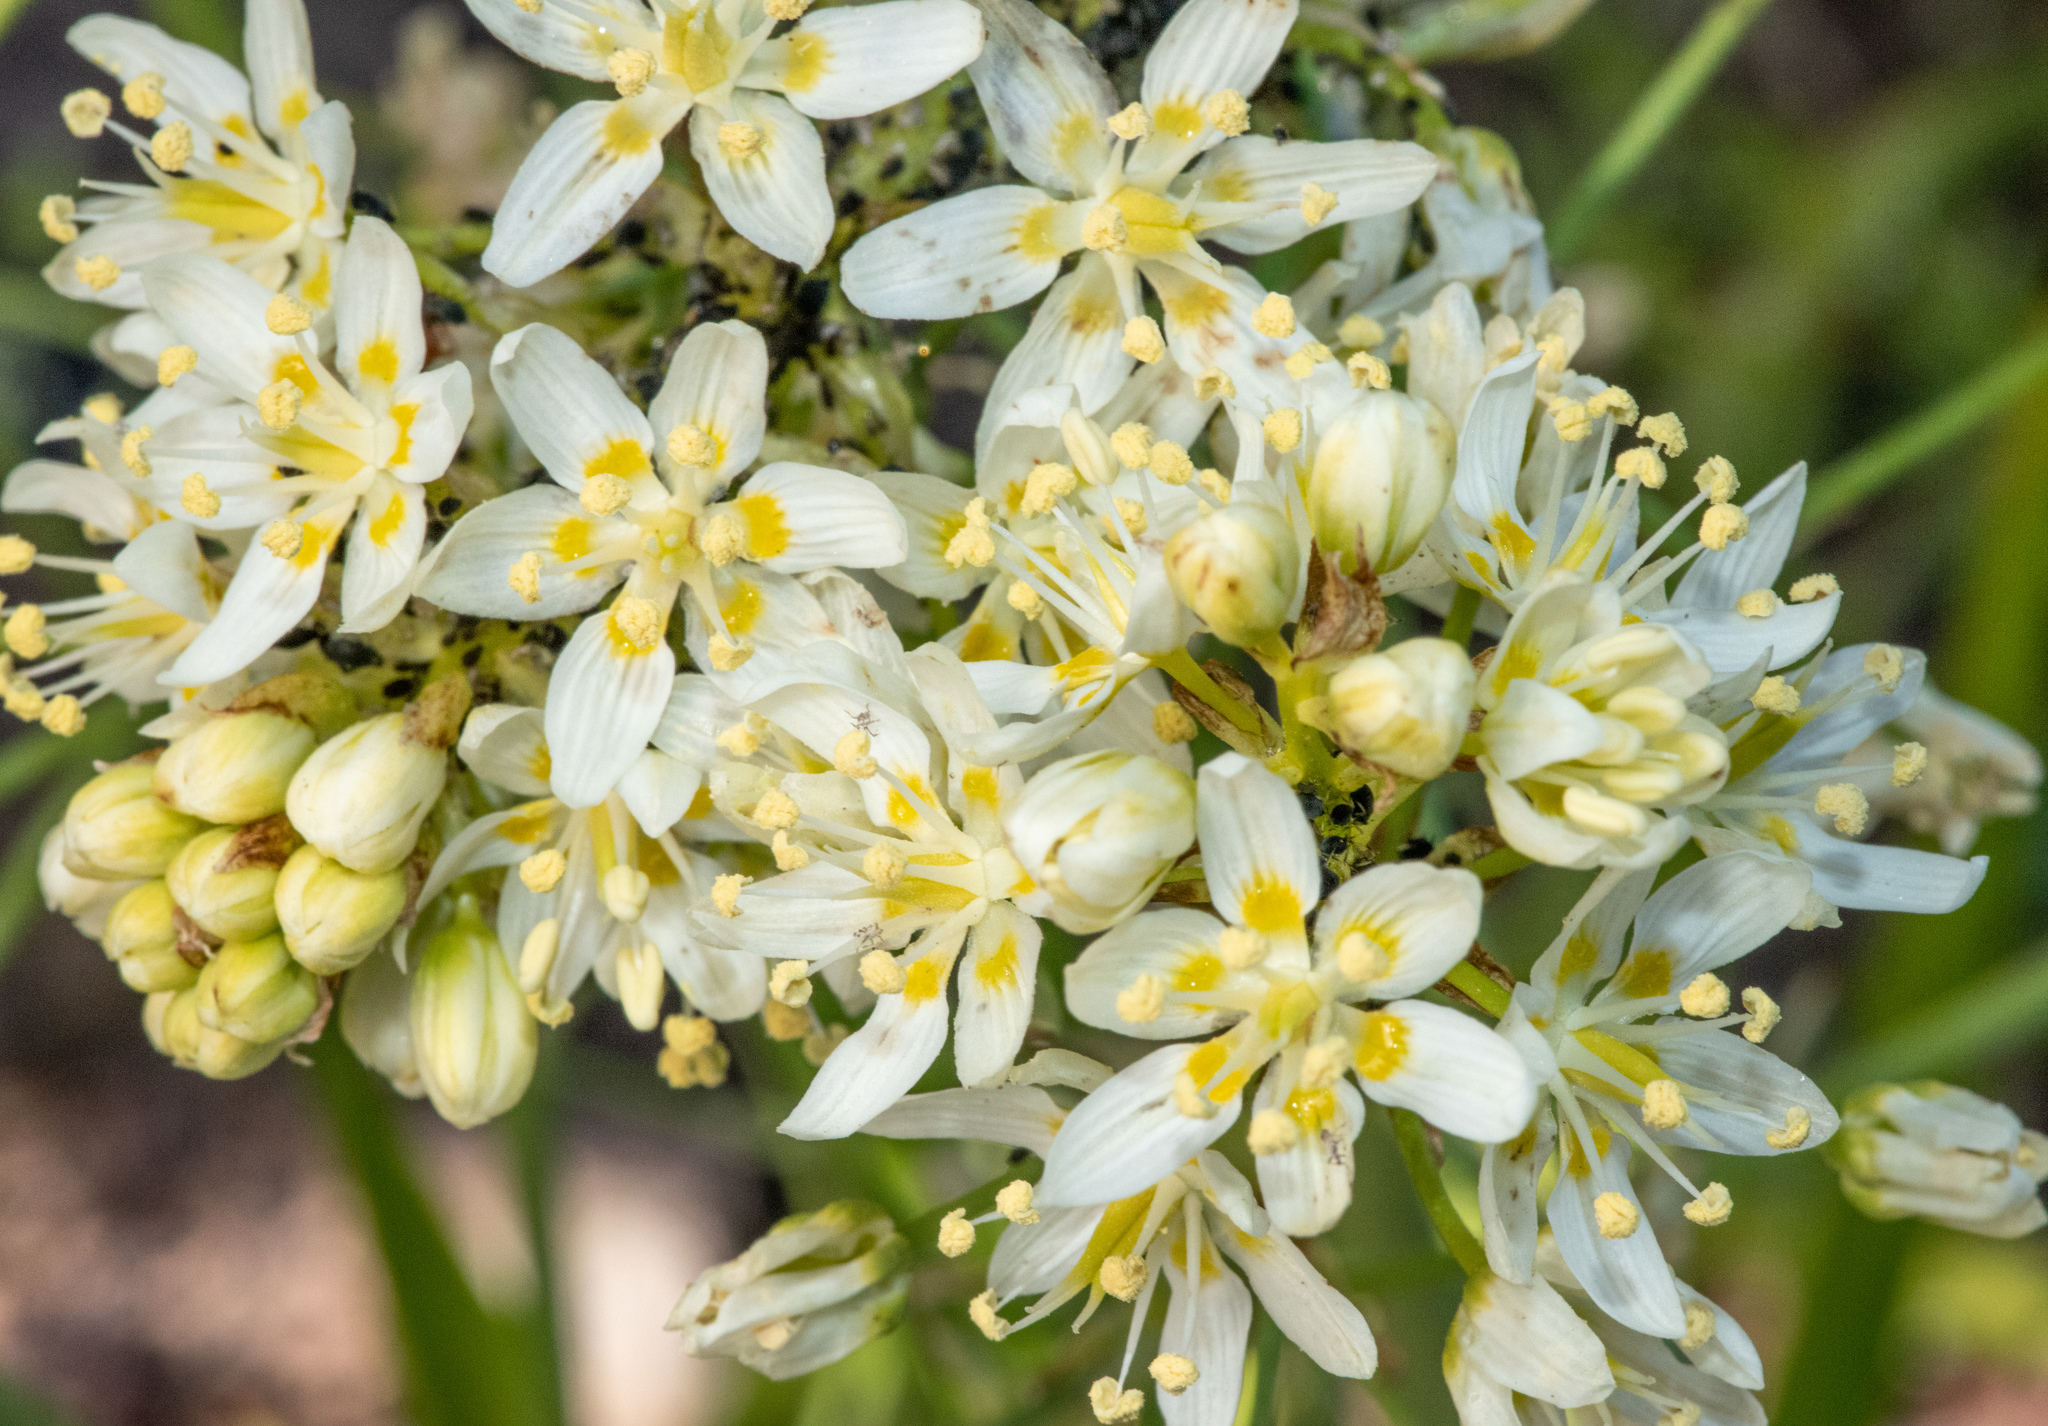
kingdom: Plantae
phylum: Tracheophyta
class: Liliopsida
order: Liliales
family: Melanthiaceae
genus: Toxicoscordion
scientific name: Toxicoscordion micranthum
